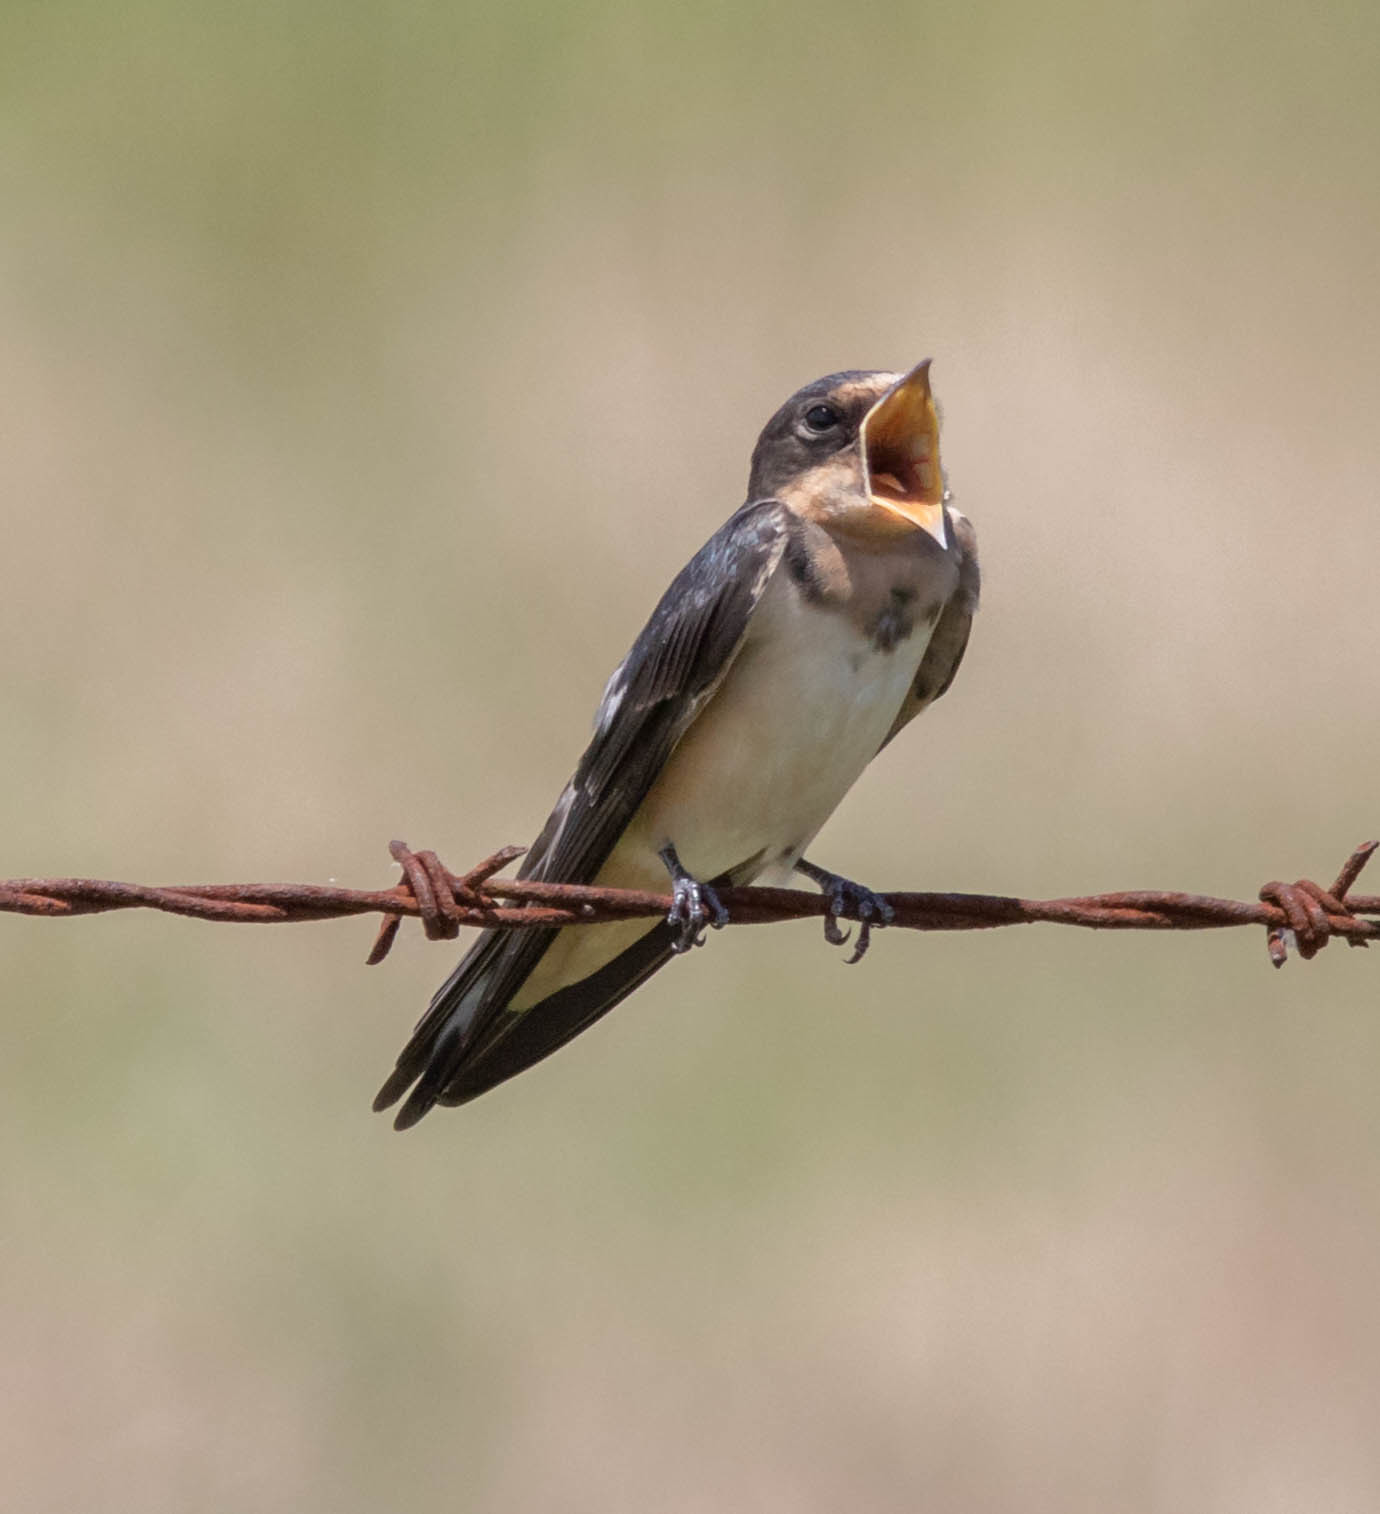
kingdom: Animalia
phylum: Chordata
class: Aves
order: Passeriformes
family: Hirundinidae
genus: Hirundo
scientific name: Hirundo rustica
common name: Barn swallow
